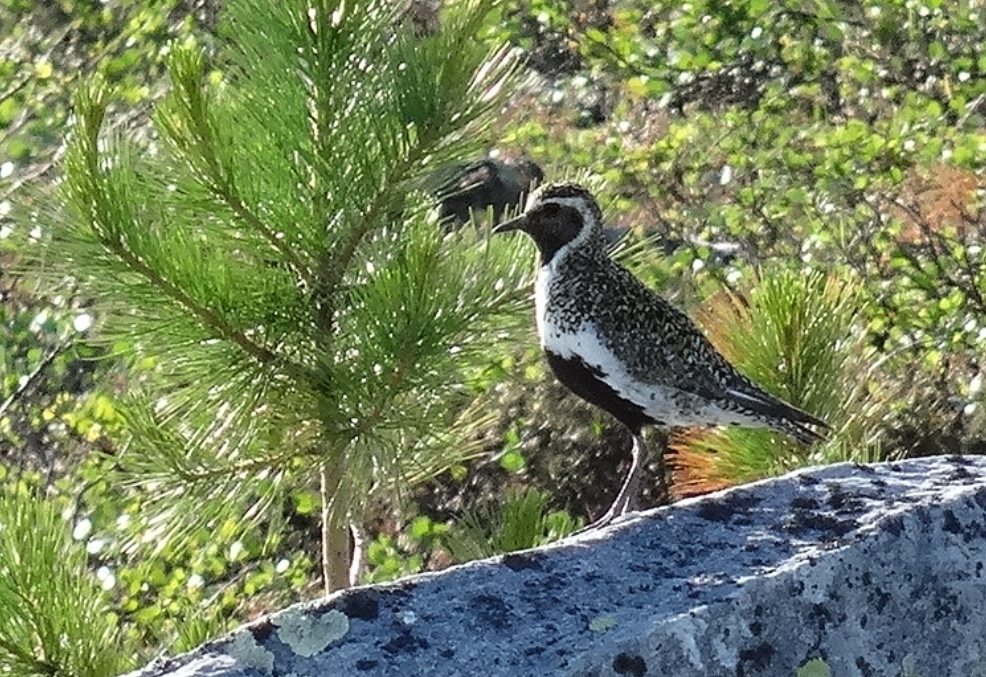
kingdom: Animalia
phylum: Chordata
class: Aves
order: Charadriiformes
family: Charadriidae
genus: Pluvialis
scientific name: Pluvialis apricaria
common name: European golden plover
